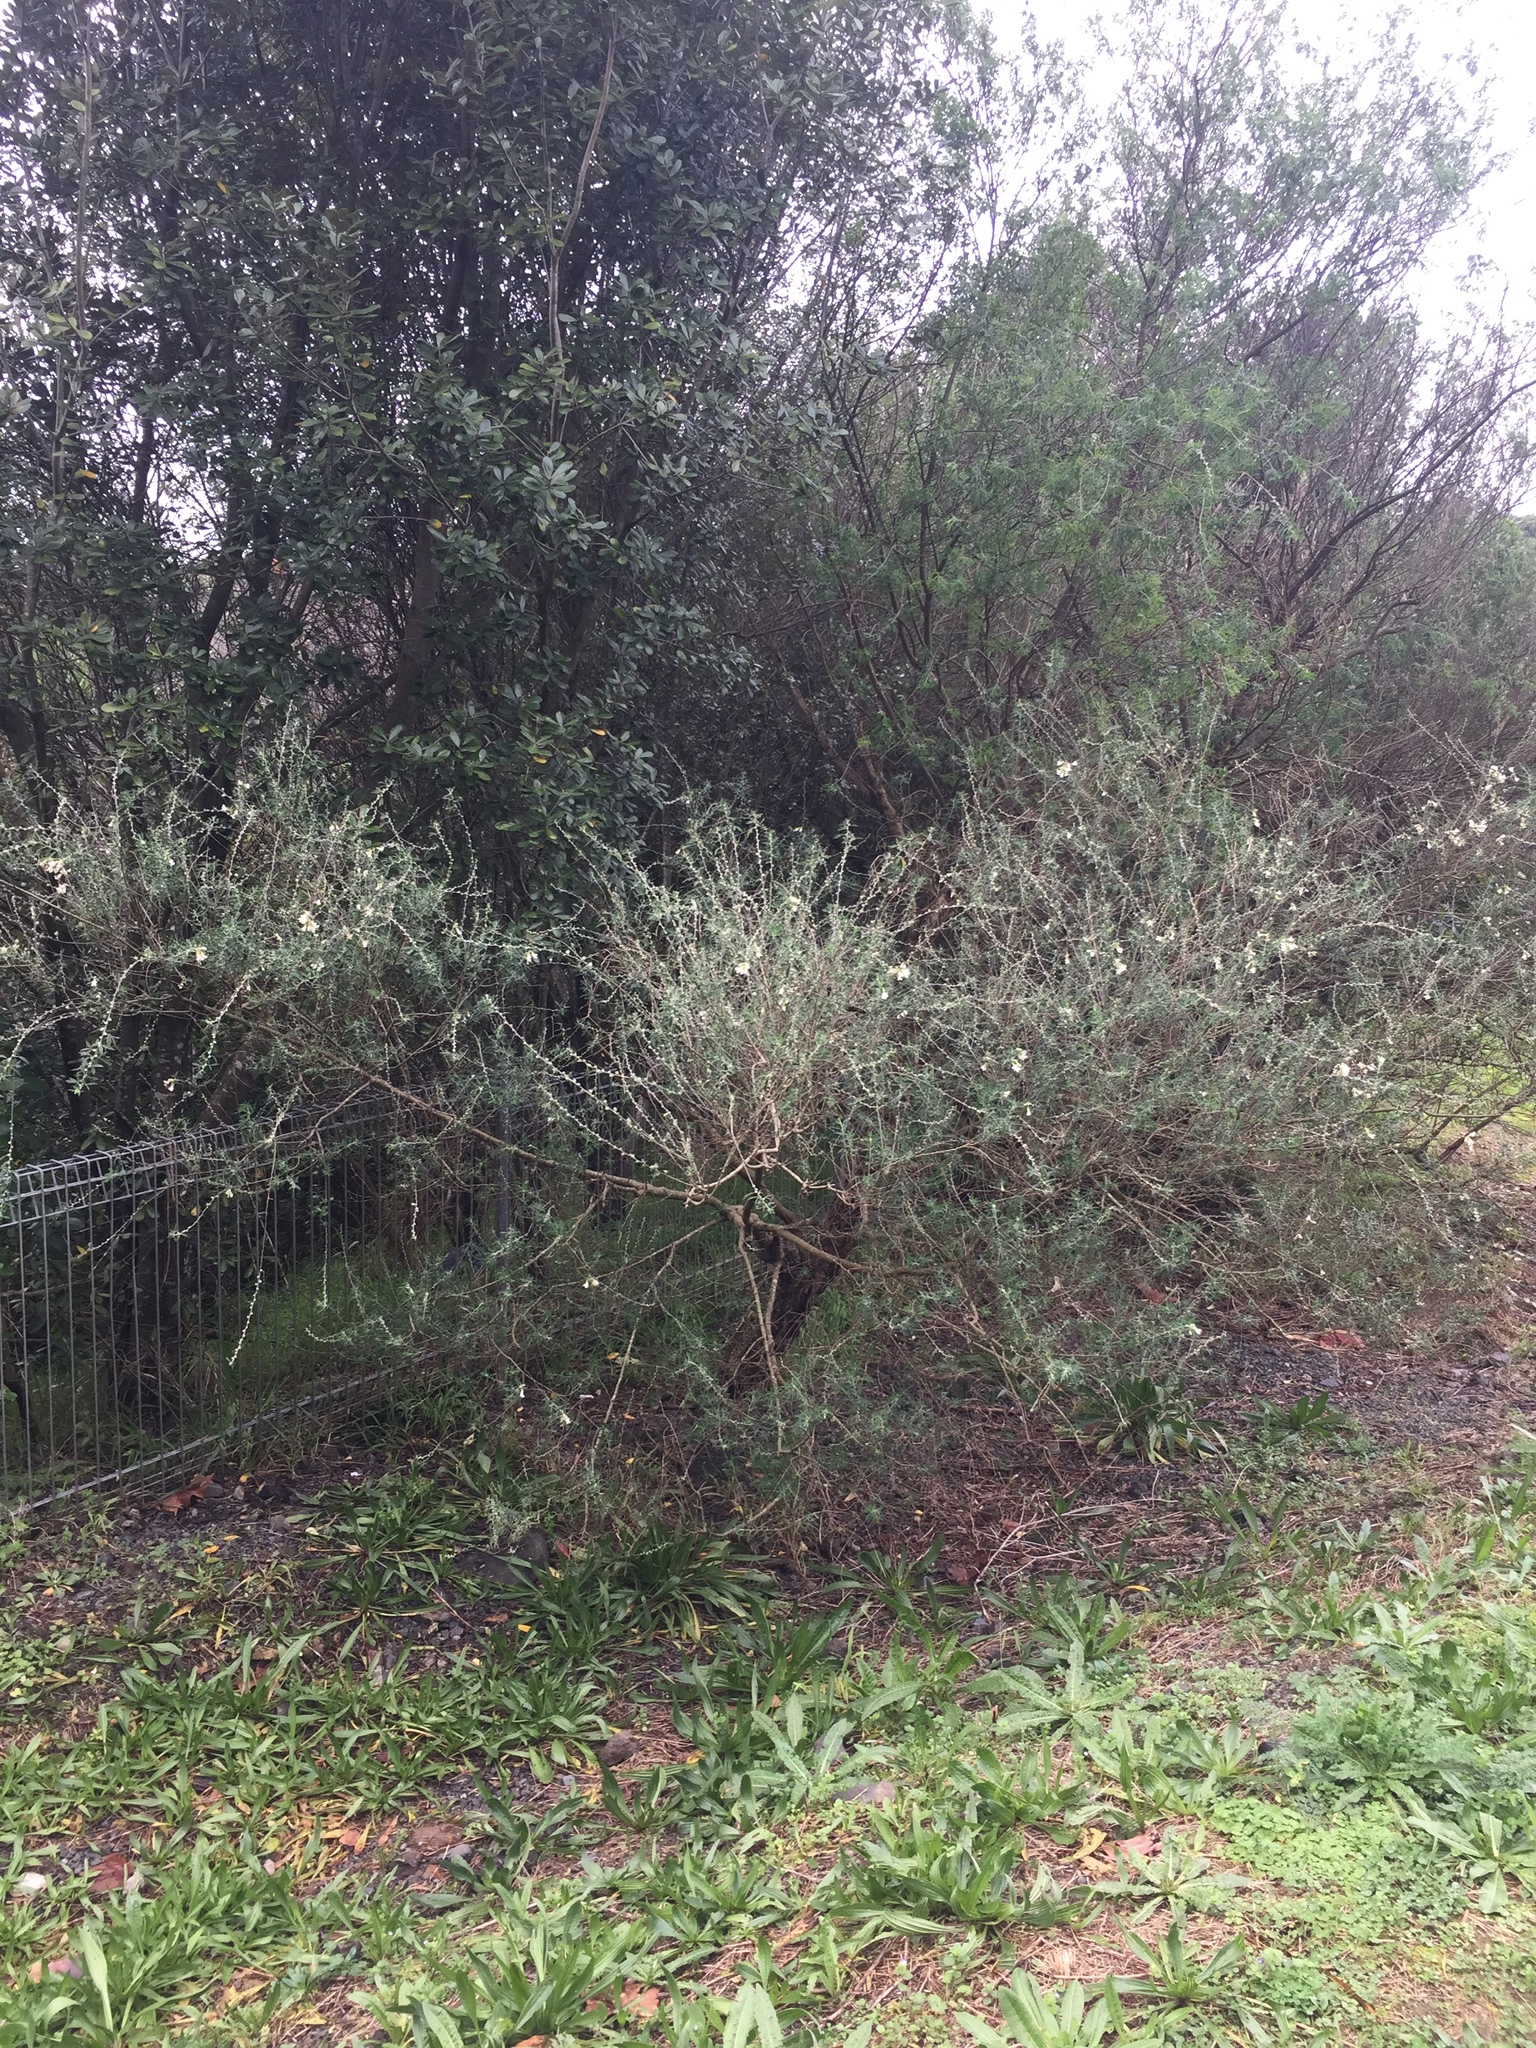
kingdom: Plantae
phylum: Tracheophyta
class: Magnoliopsida
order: Fabales
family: Fabaceae
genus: Chamaecytisus
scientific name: Chamaecytisus prolifer
